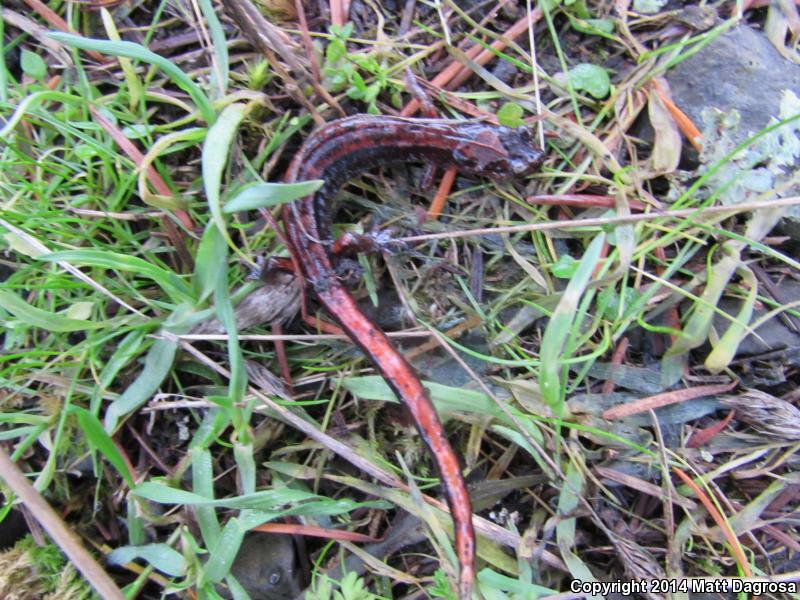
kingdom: Animalia
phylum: Chordata
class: Amphibia
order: Caudata
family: Plethodontidae
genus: Plethodon
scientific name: Plethodon vehiculum
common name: Western red-backed salamander
